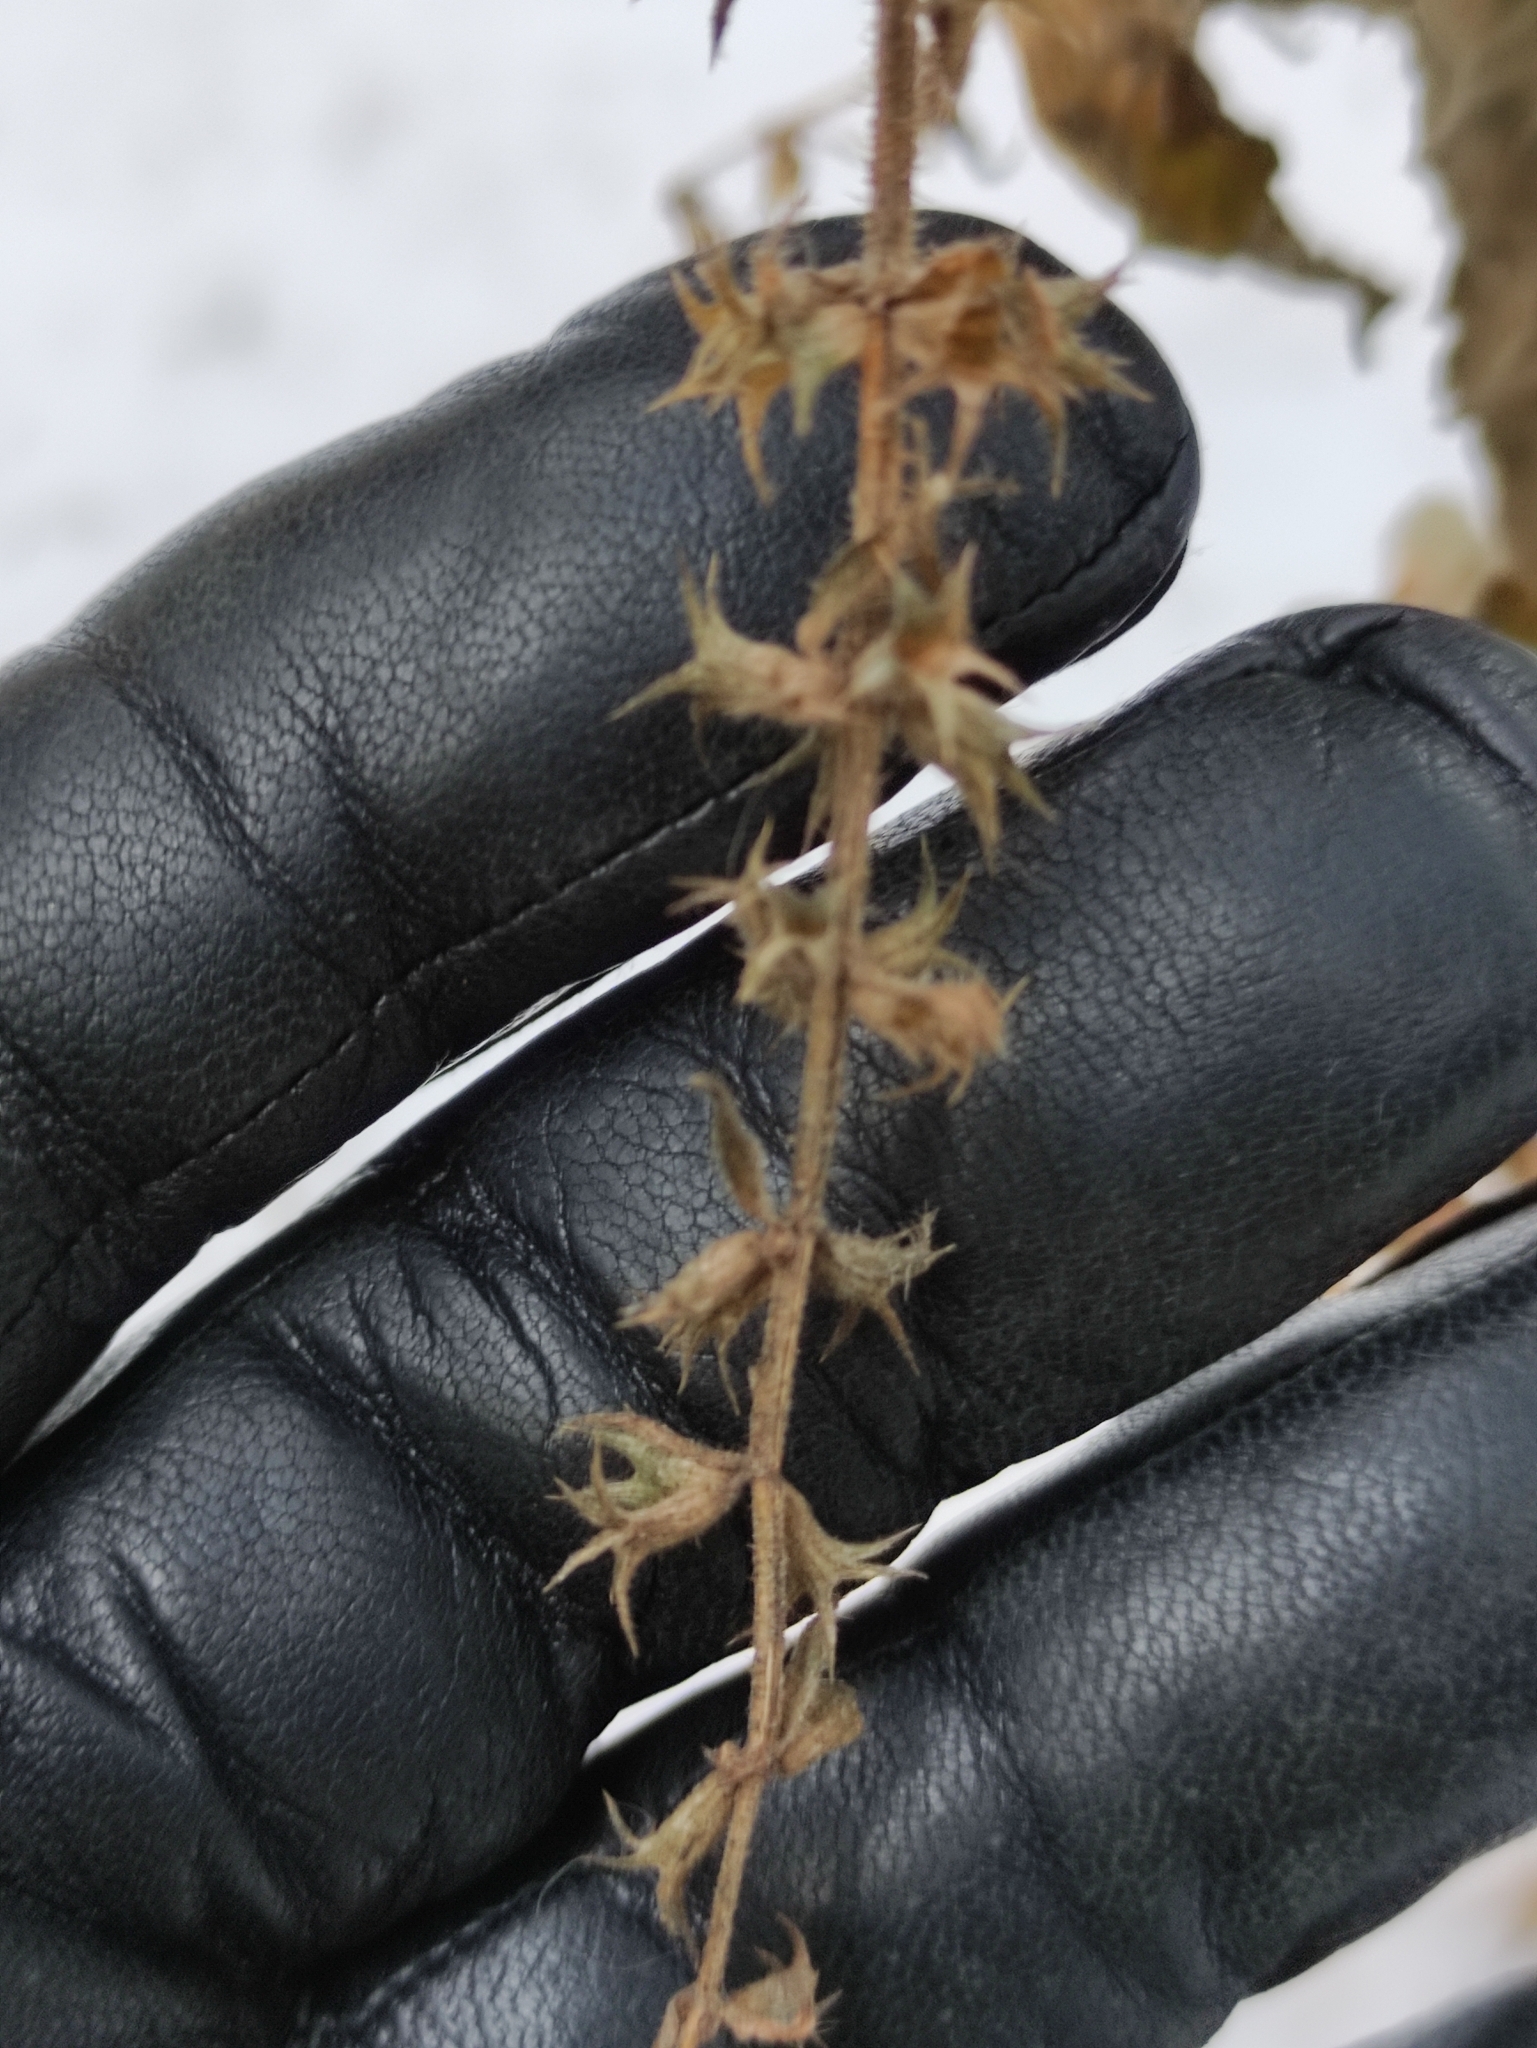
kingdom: Plantae
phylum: Tracheophyta
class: Magnoliopsida
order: Lamiales
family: Lamiaceae
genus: Stachys
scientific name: Stachys sylvatica
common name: Hedge woundwort
